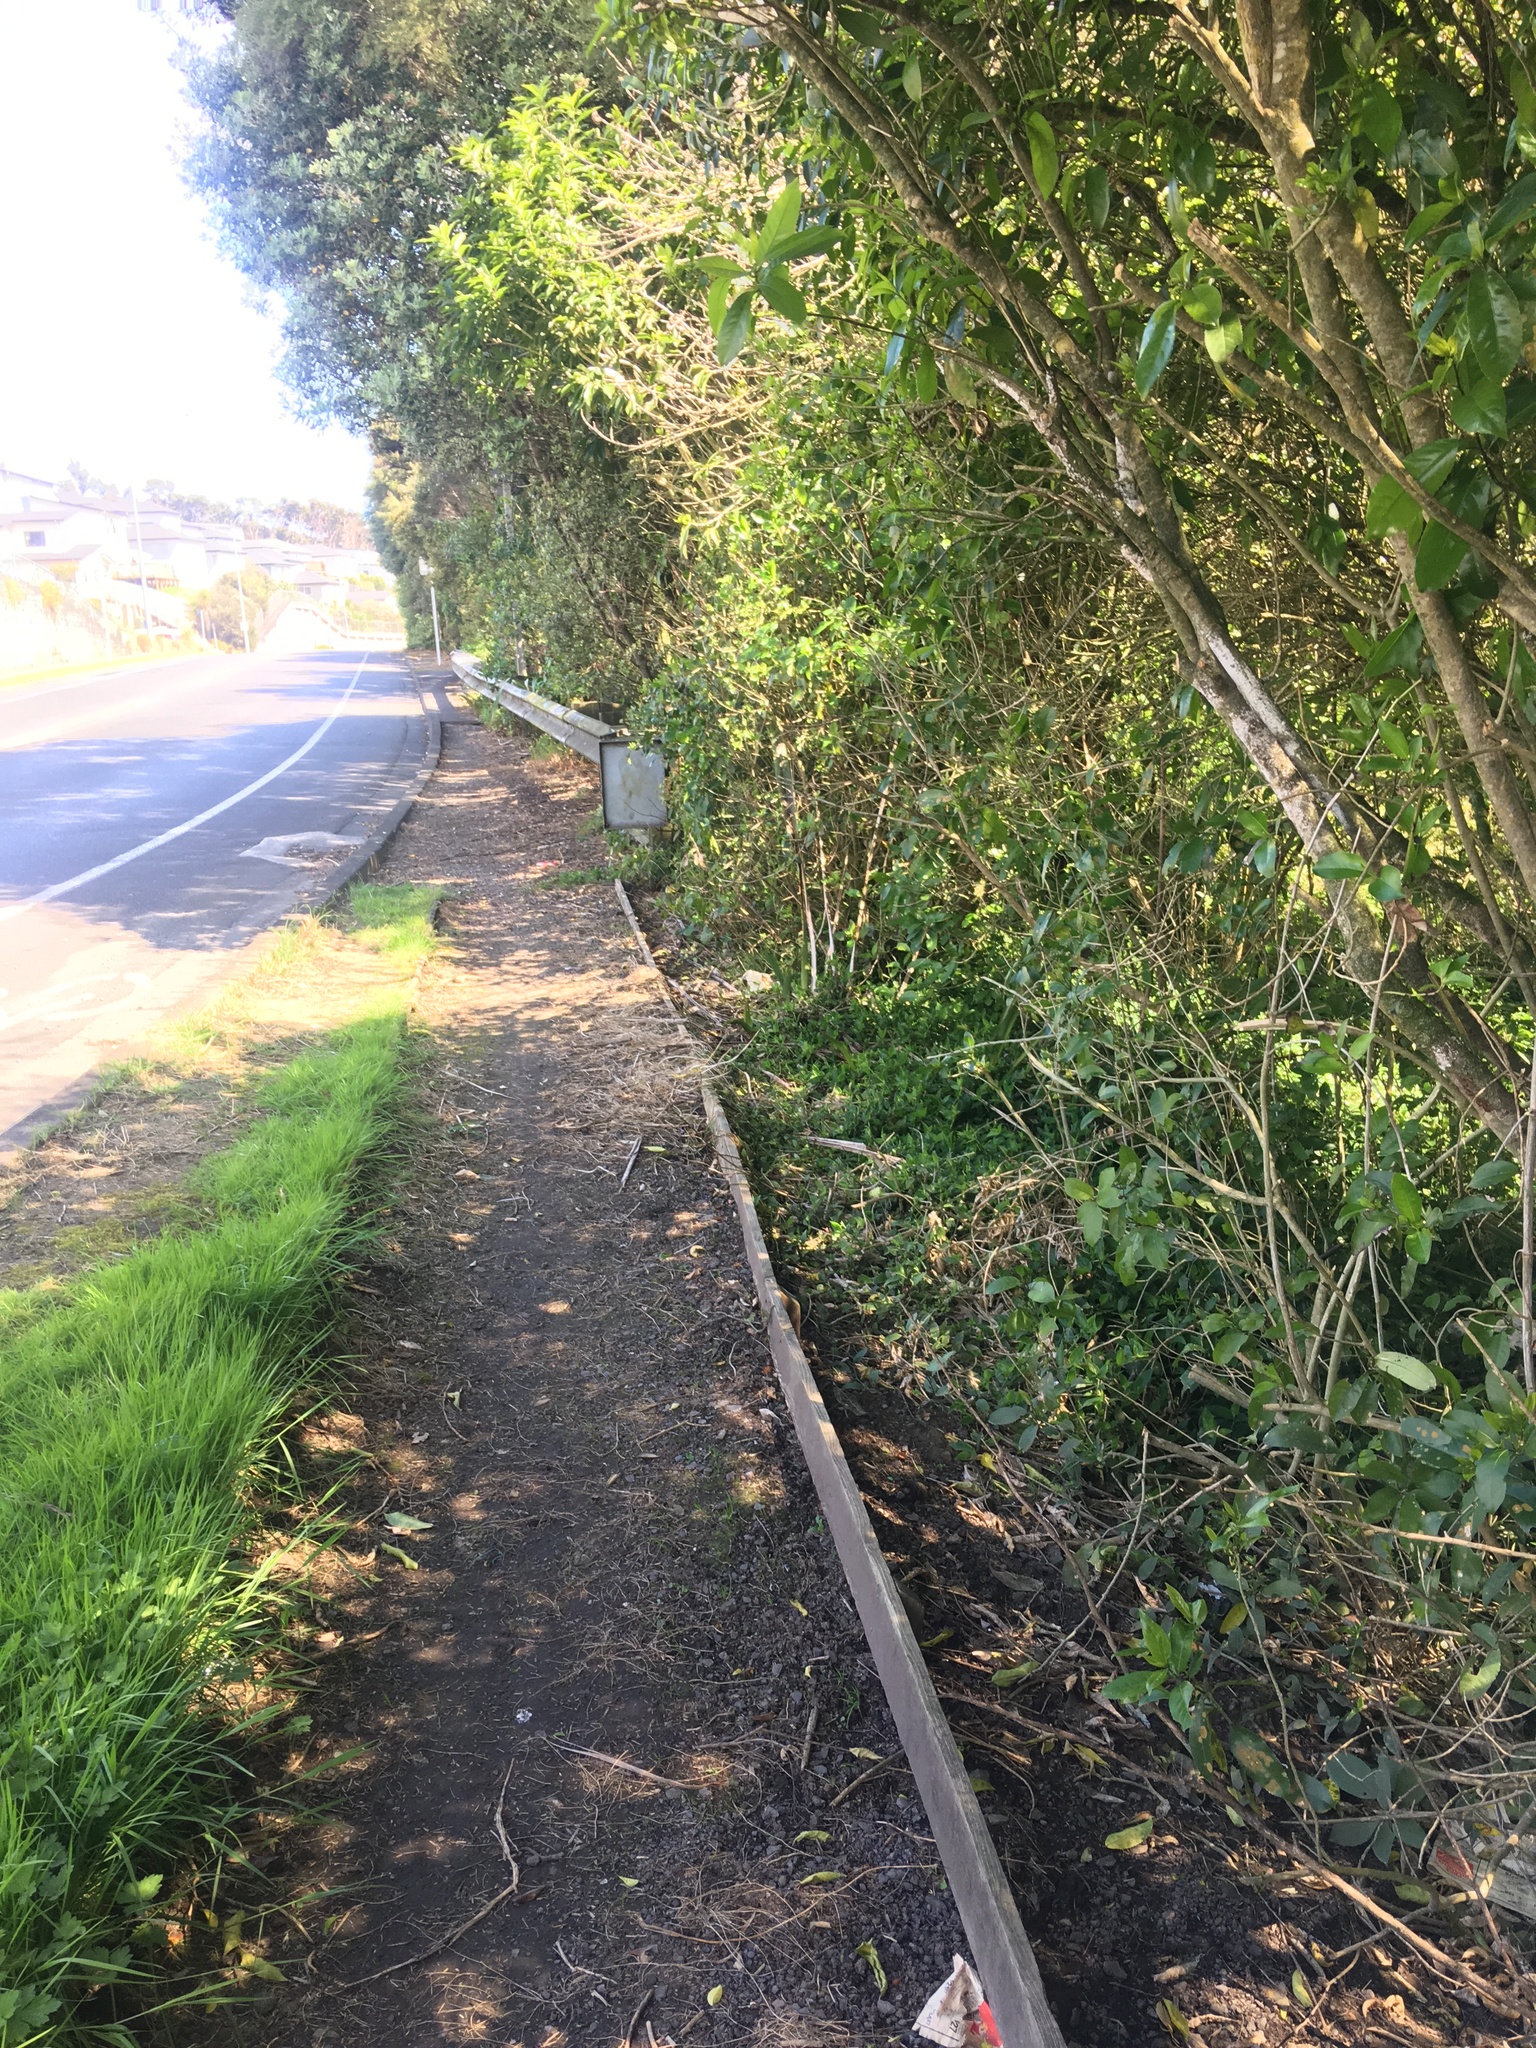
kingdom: Plantae
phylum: Tracheophyta
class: Liliopsida
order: Commelinales
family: Commelinaceae
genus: Tradescantia
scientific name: Tradescantia fluminensis
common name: Wandering-jew
